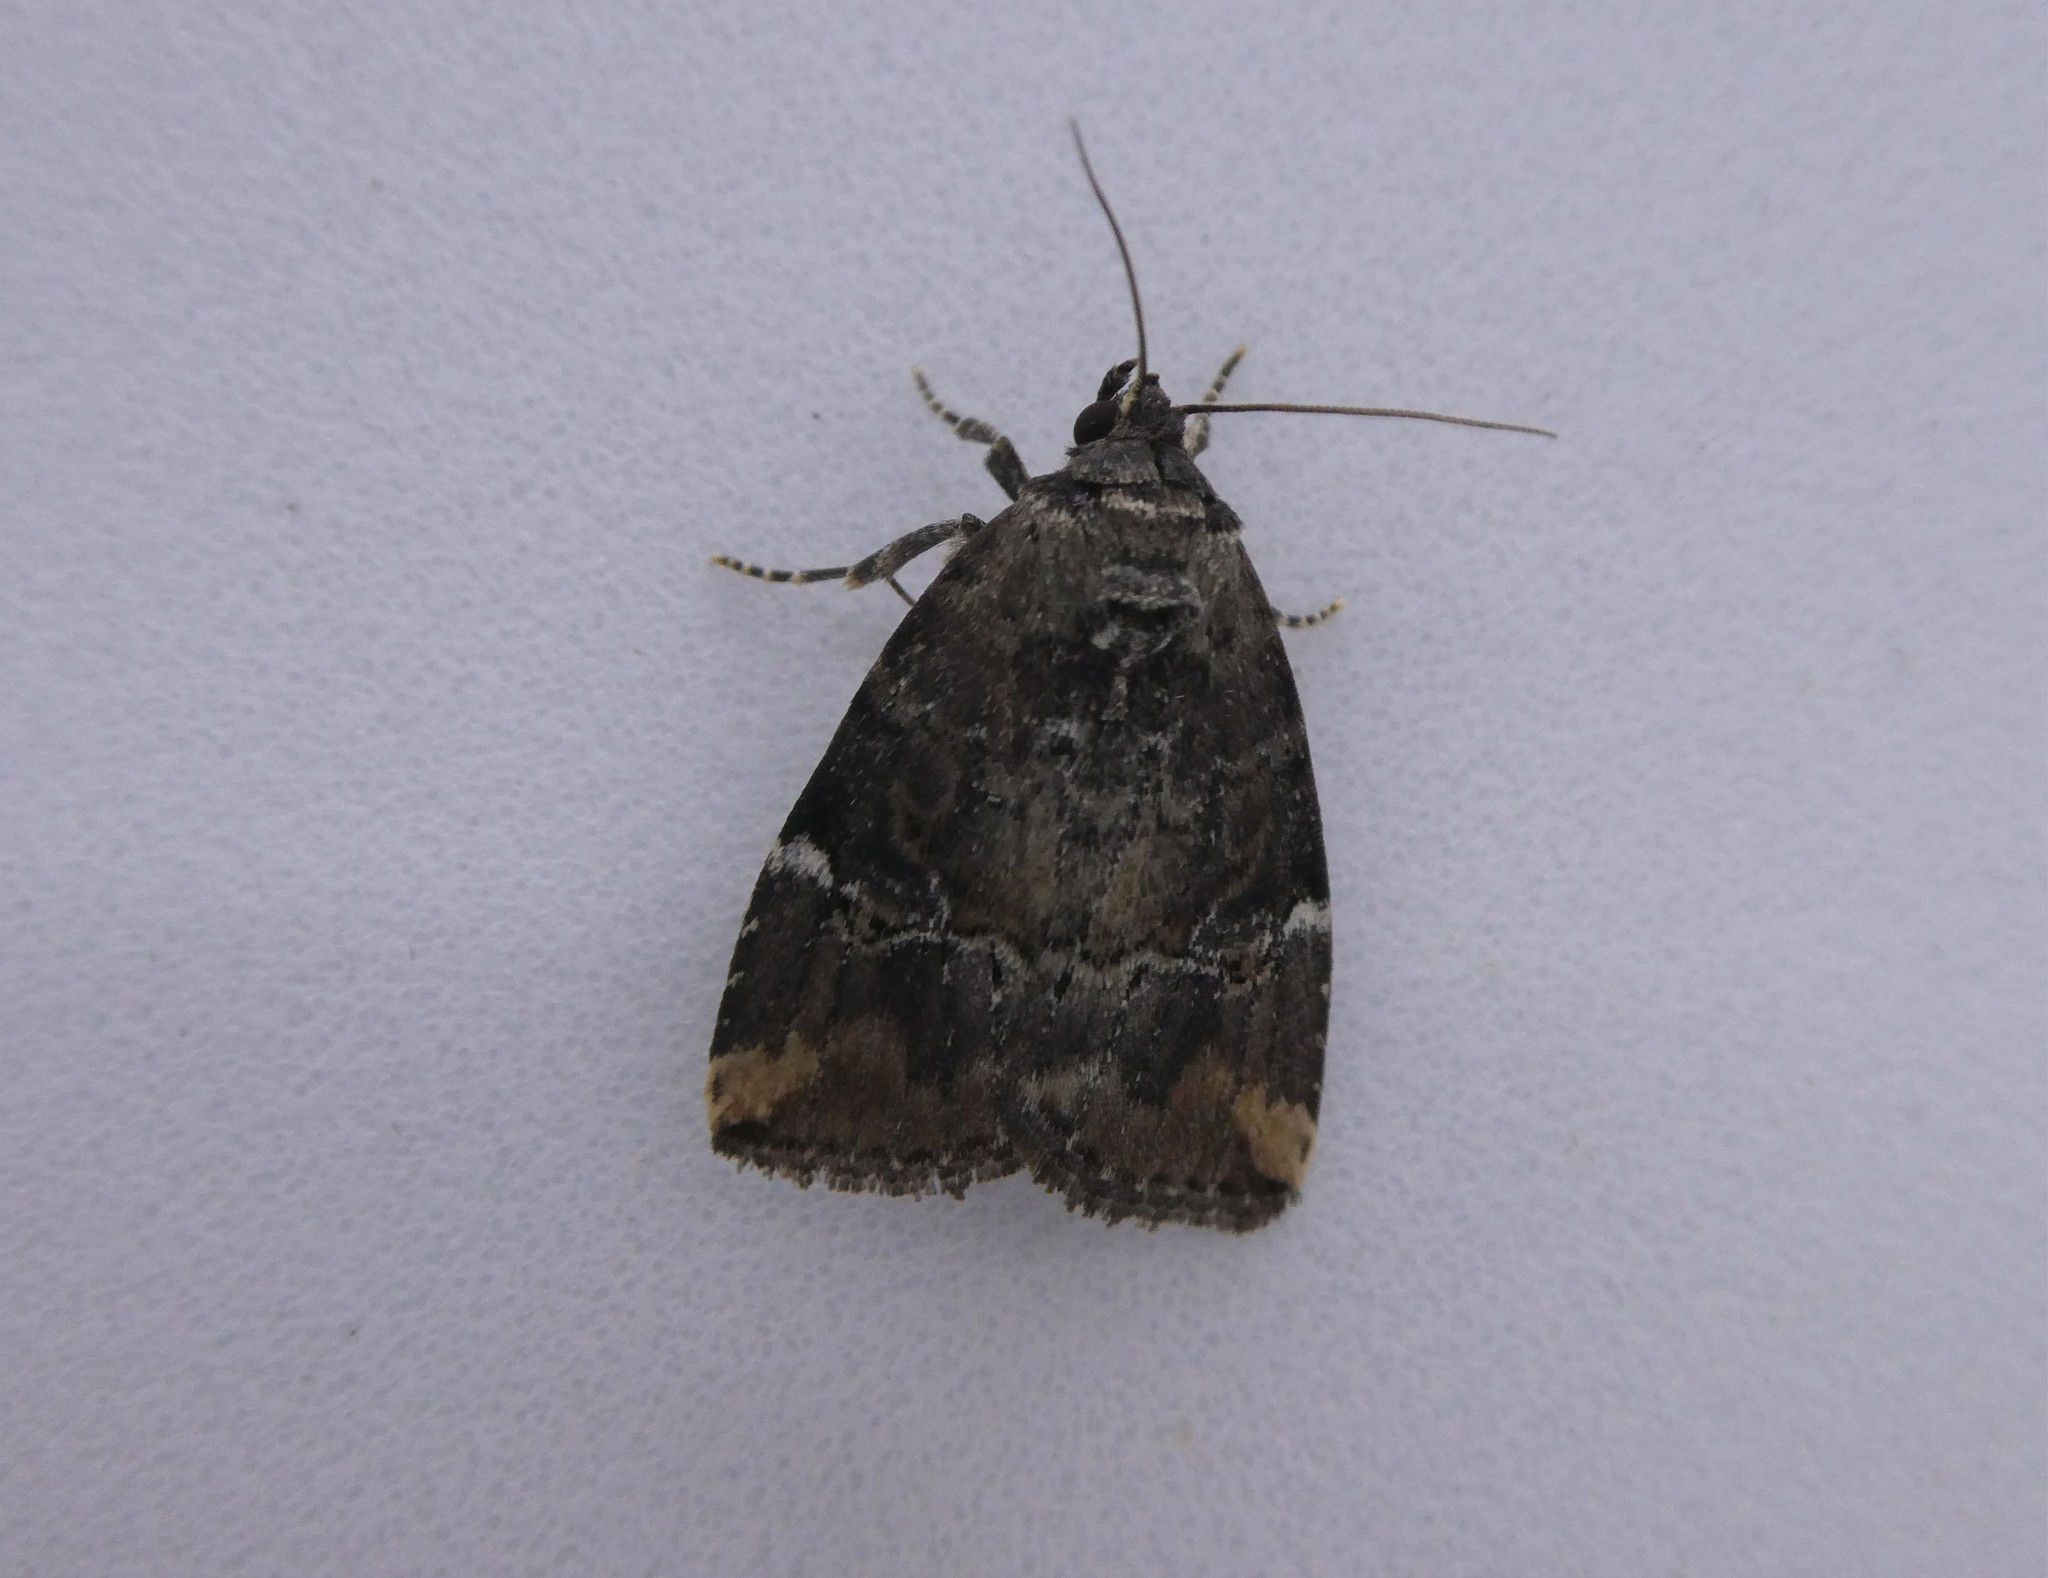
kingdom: Animalia
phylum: Arthropoda
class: Insecta
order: Lepidoptera
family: Noctuidae
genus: Elaphria
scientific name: Elaphria versicolor
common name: Fir harlequin
